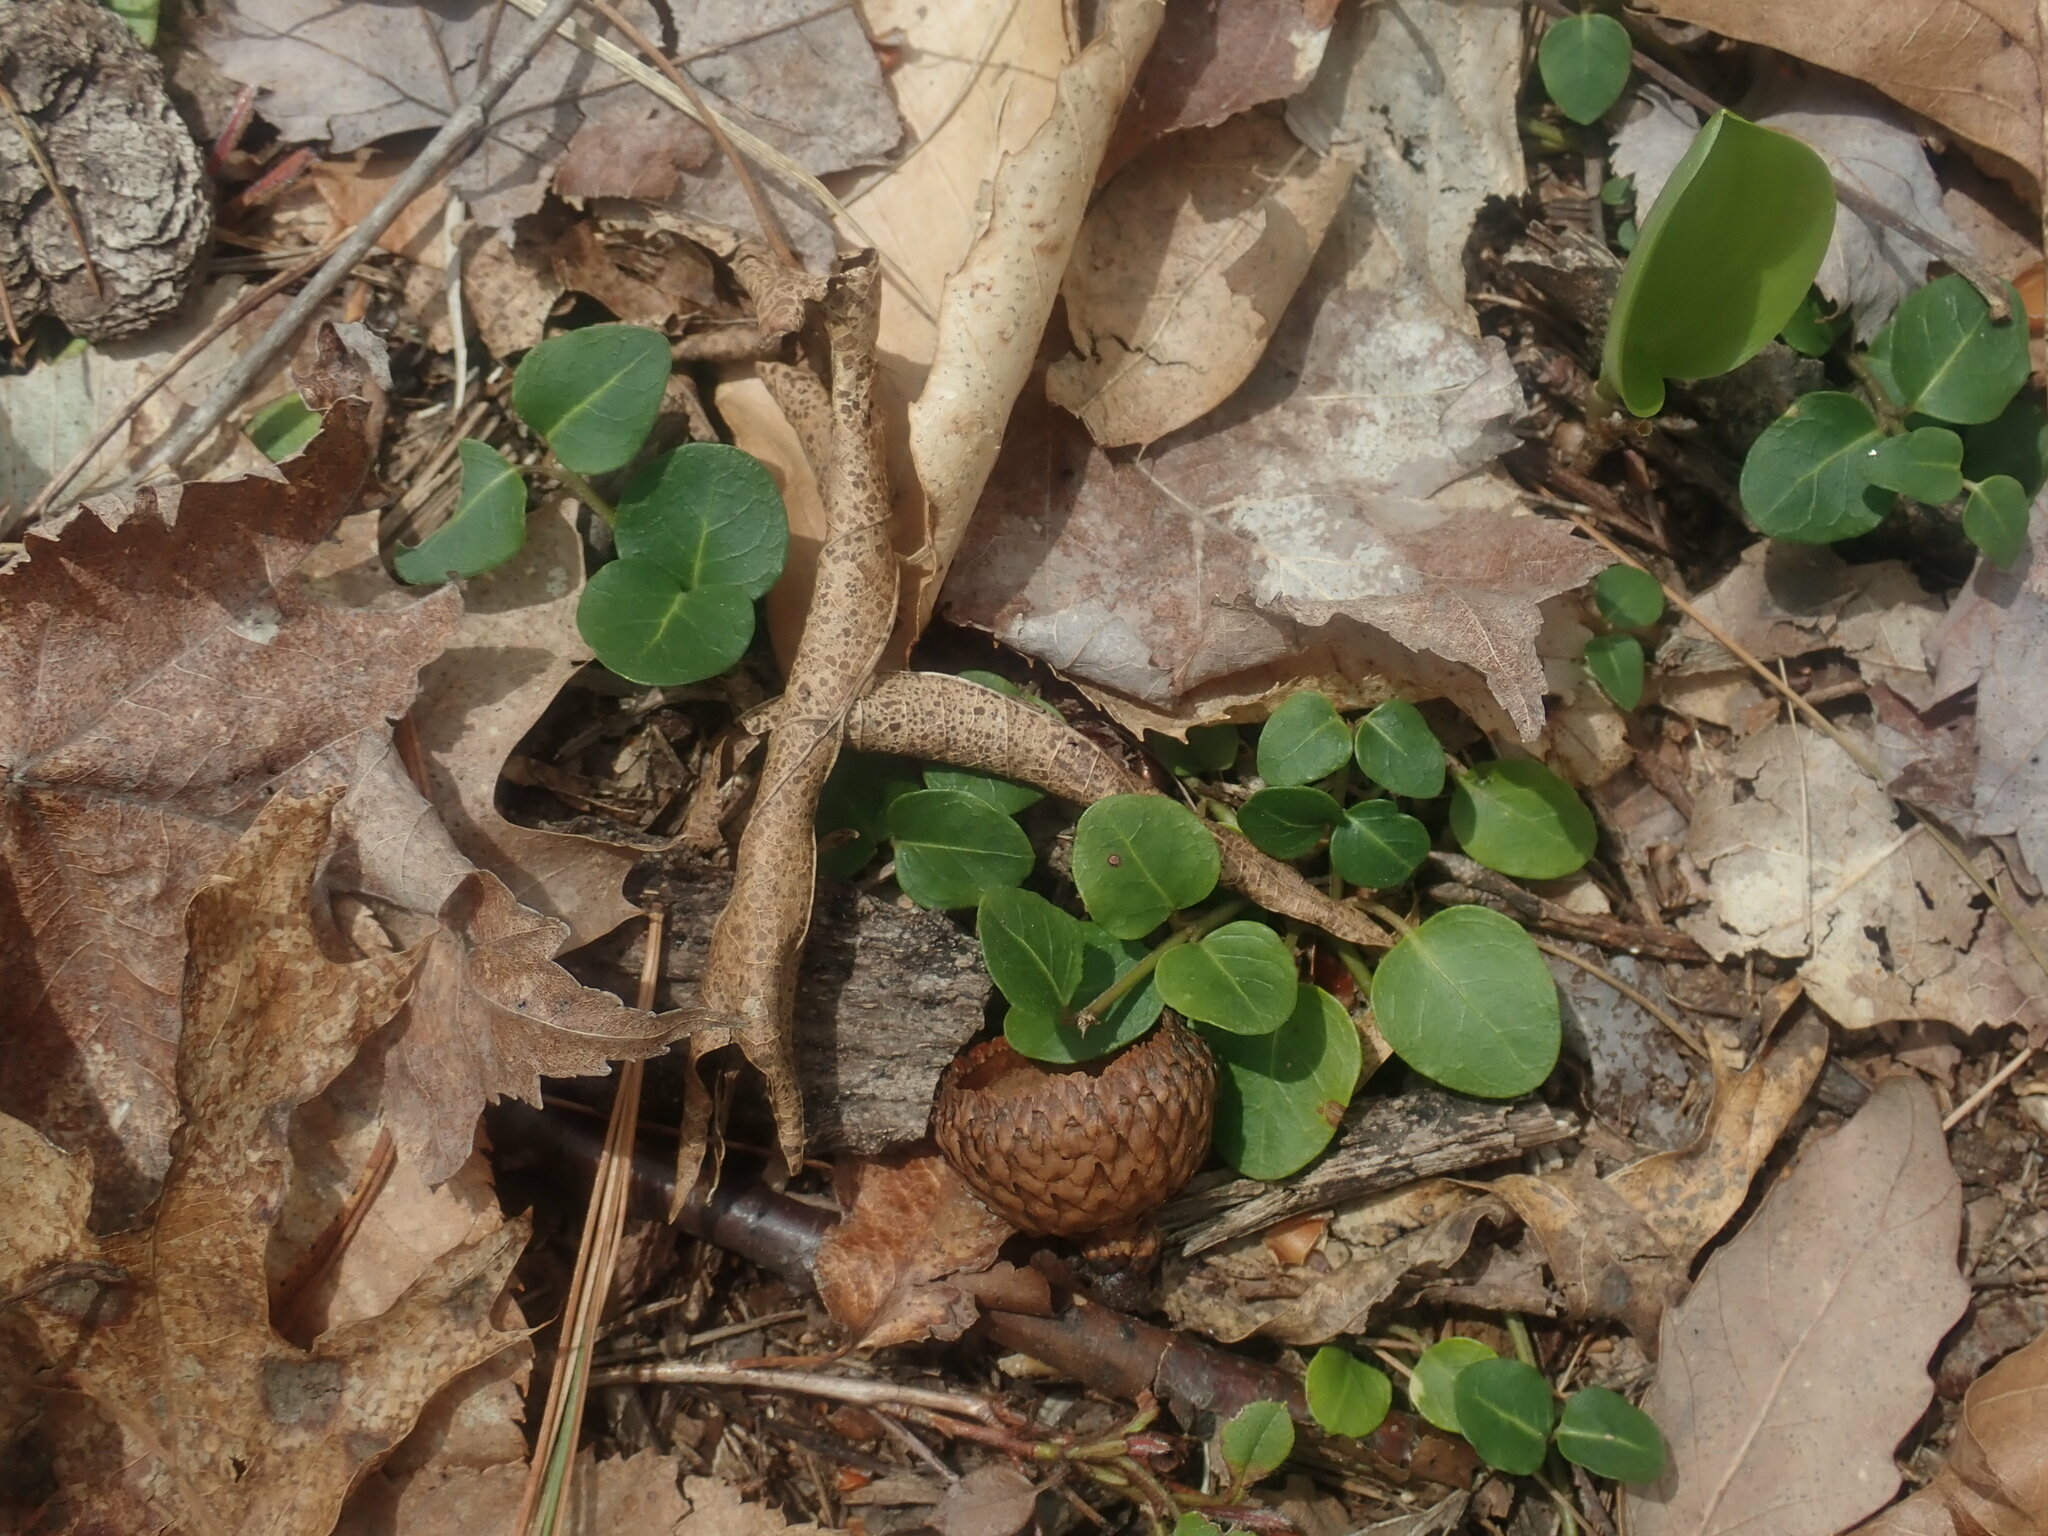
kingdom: Plantae
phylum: Tracheophyta
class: Magnoliopsida
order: Gentianales
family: Rubiaceae
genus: Mitchella
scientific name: Mitchella repens
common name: Partridge-berry
